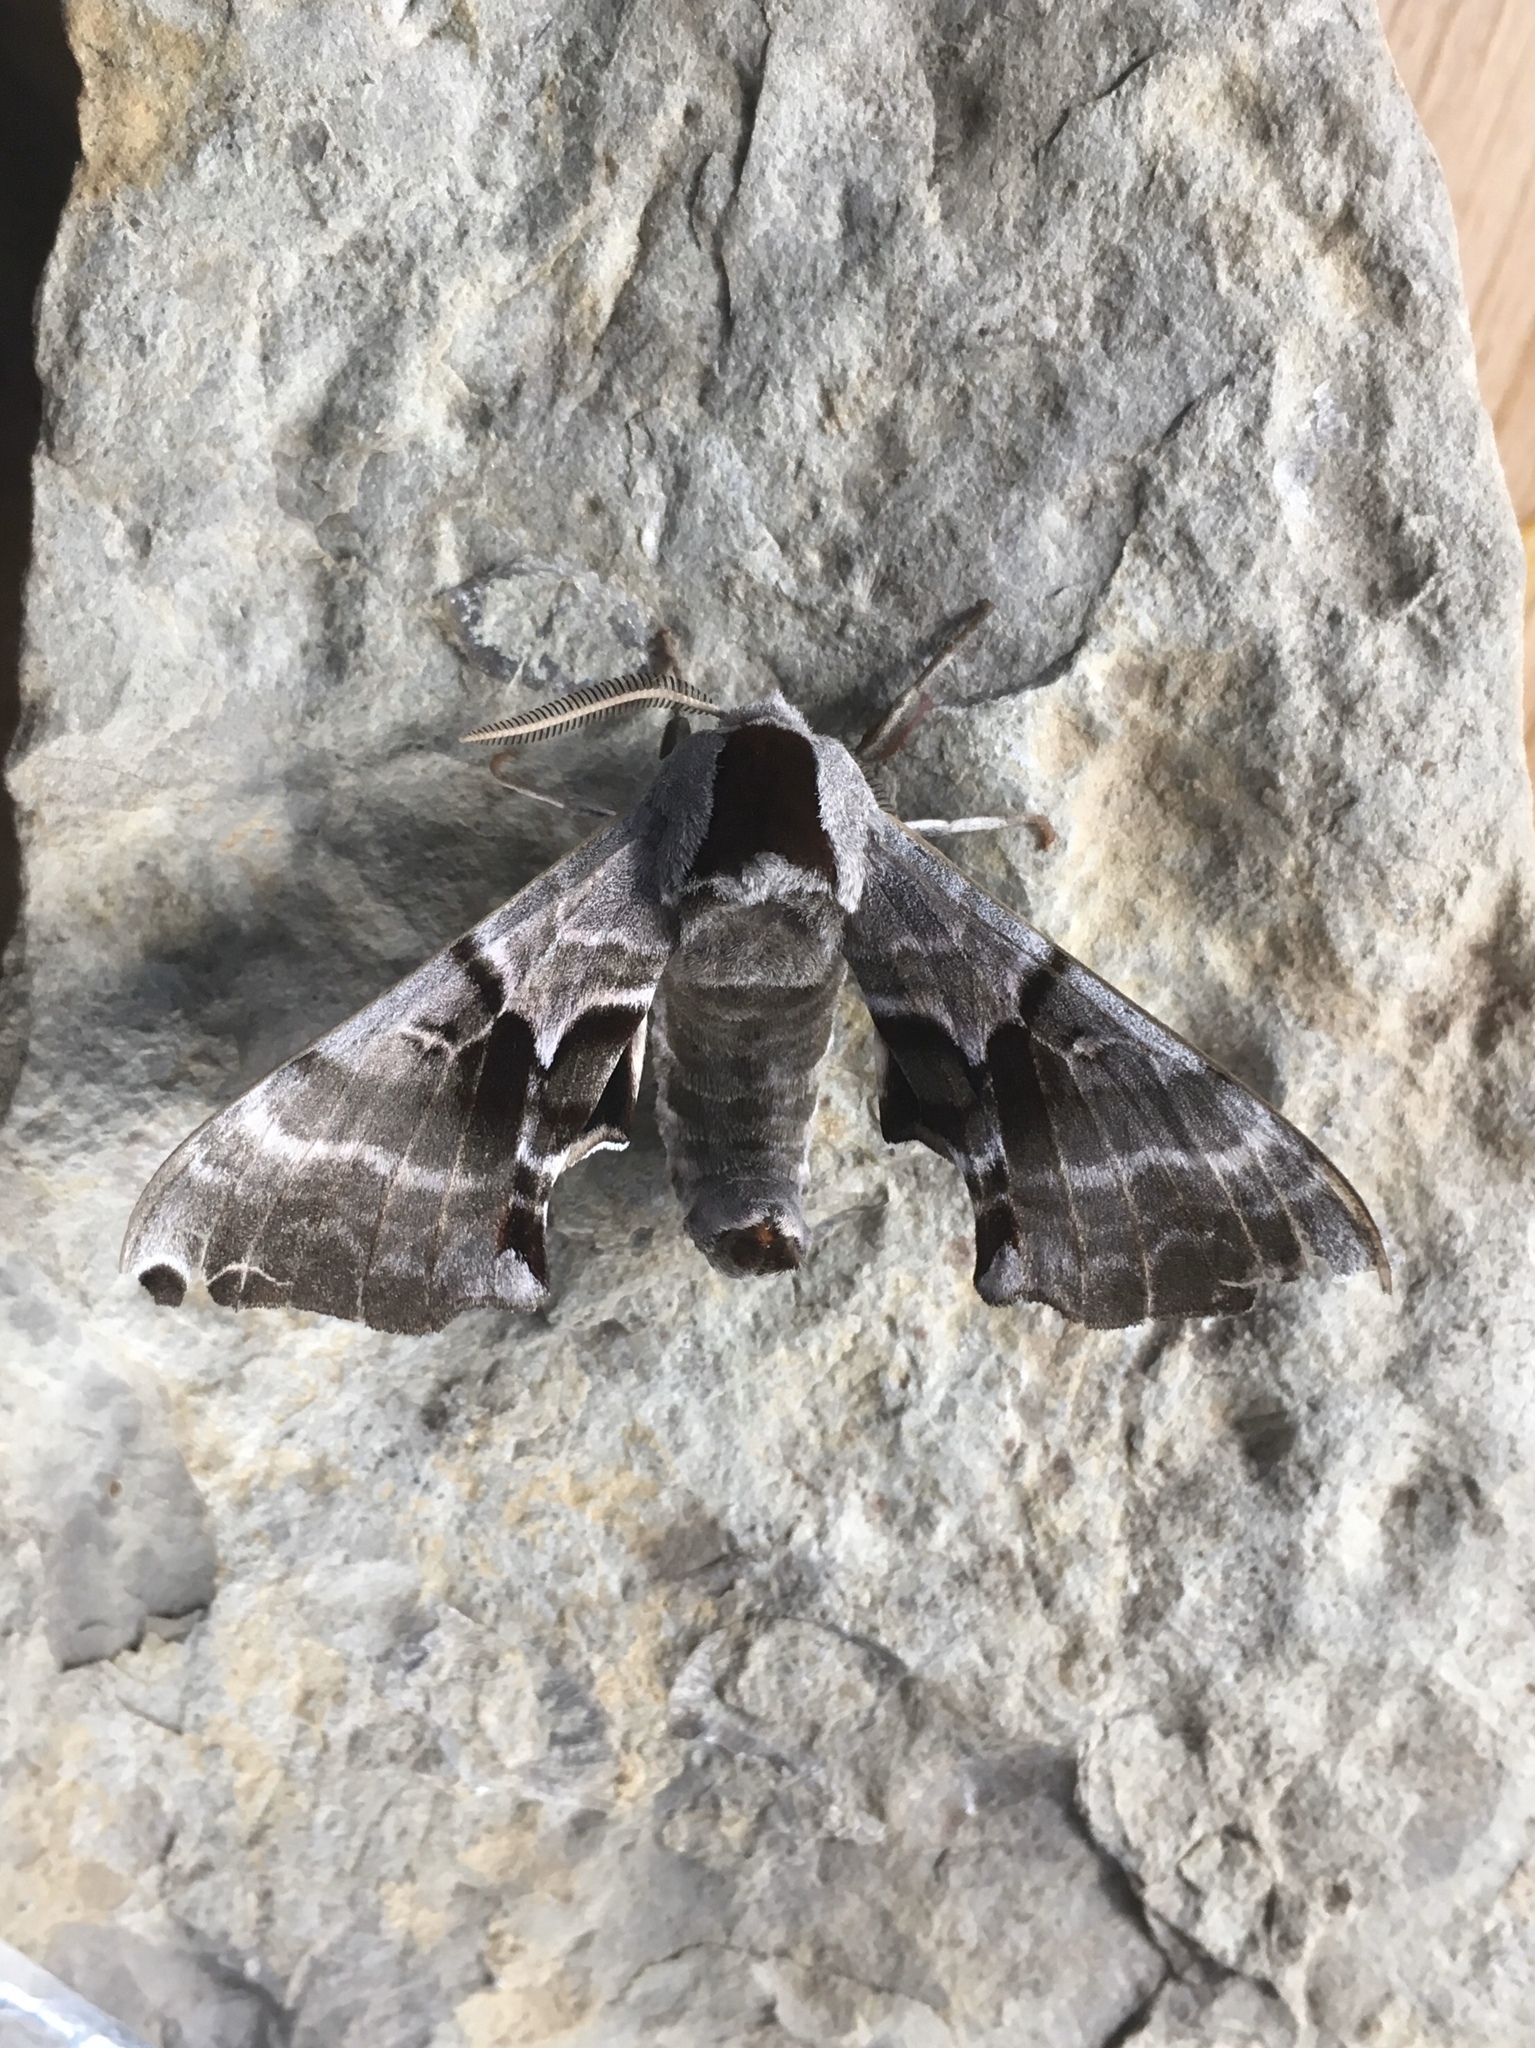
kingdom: Animalia
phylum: Arthropoda
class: Insecta
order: Lepidoptera
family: Sphingidae
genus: Smerinthus
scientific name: Smerinthus jamaicensis
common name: Twin spotted sphinx
